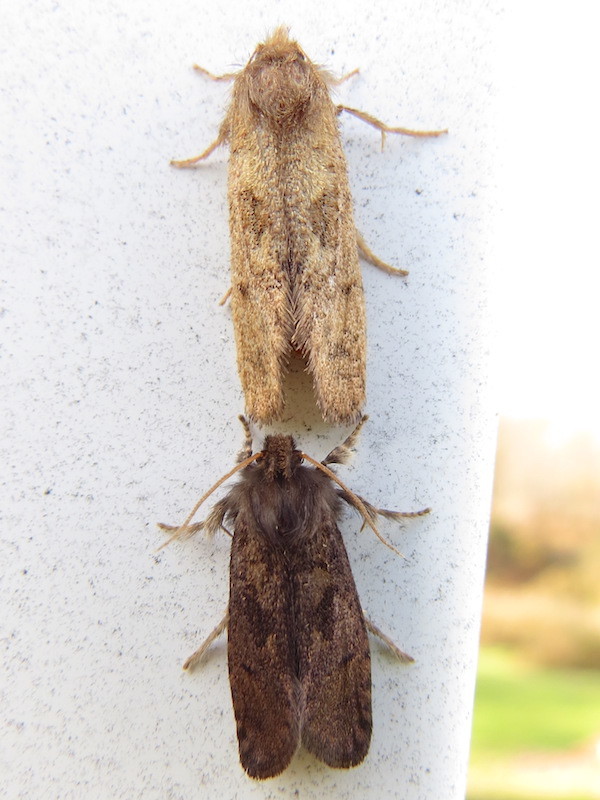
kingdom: Animalia
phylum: Arthropoda
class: Insecta
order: Lepidoptera
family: Tineidae
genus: Acrolophus
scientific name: Acrolophus mora
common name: Dark acrolophus
